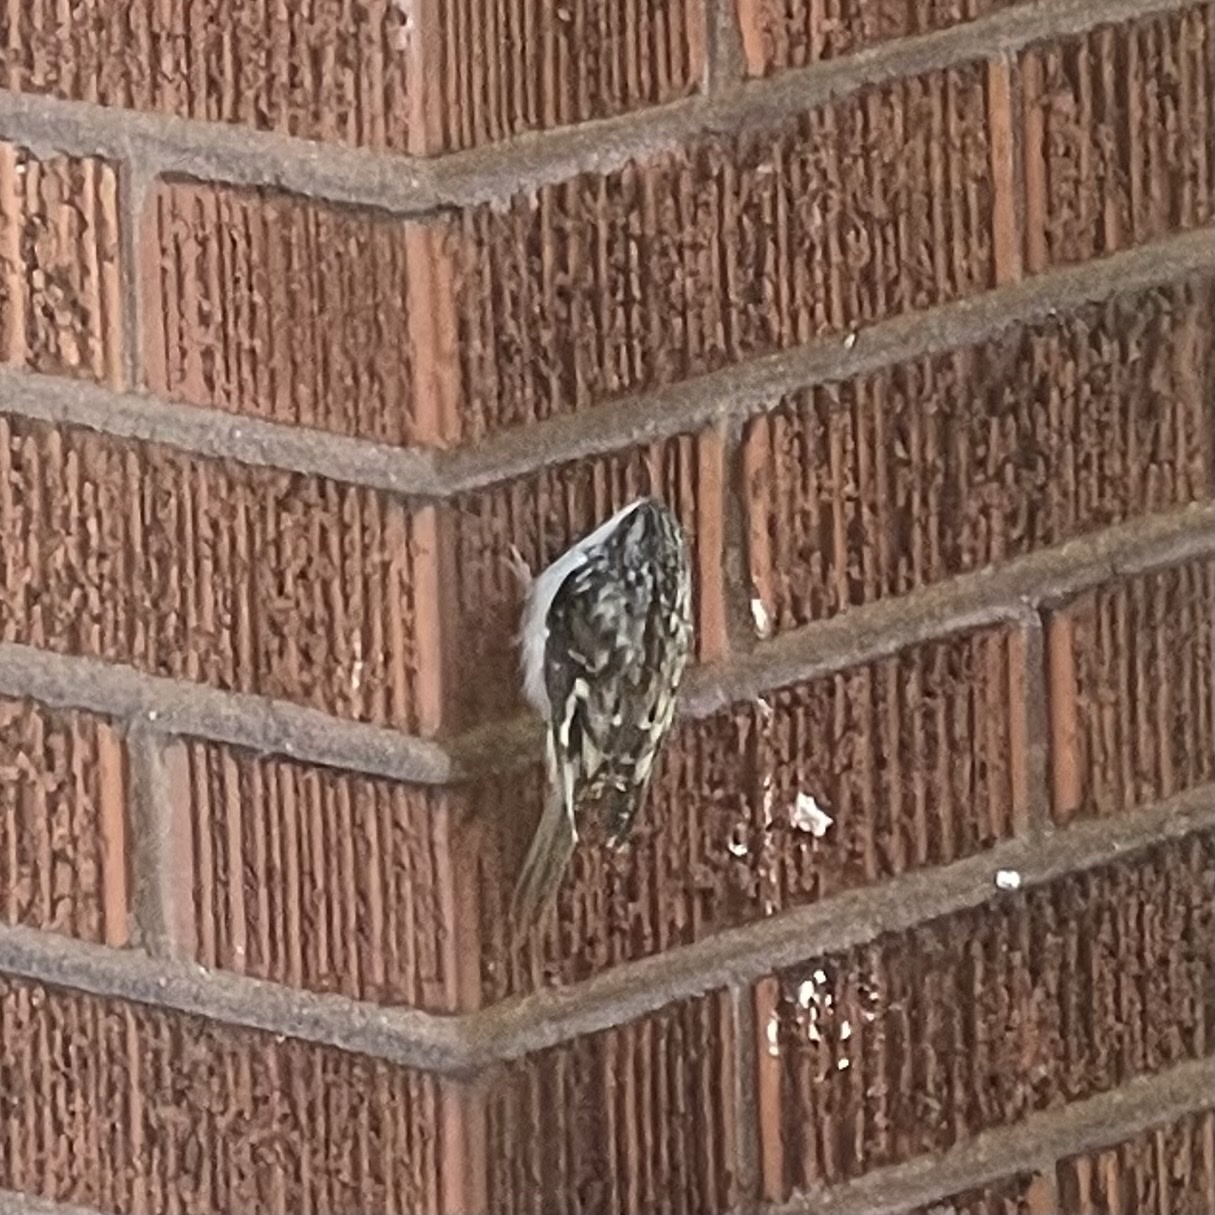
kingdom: Animalia
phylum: Chordata
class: Aves
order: Passeriformes
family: Certhiidae
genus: Certhia
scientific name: Certhia americana
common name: Brown creeper
